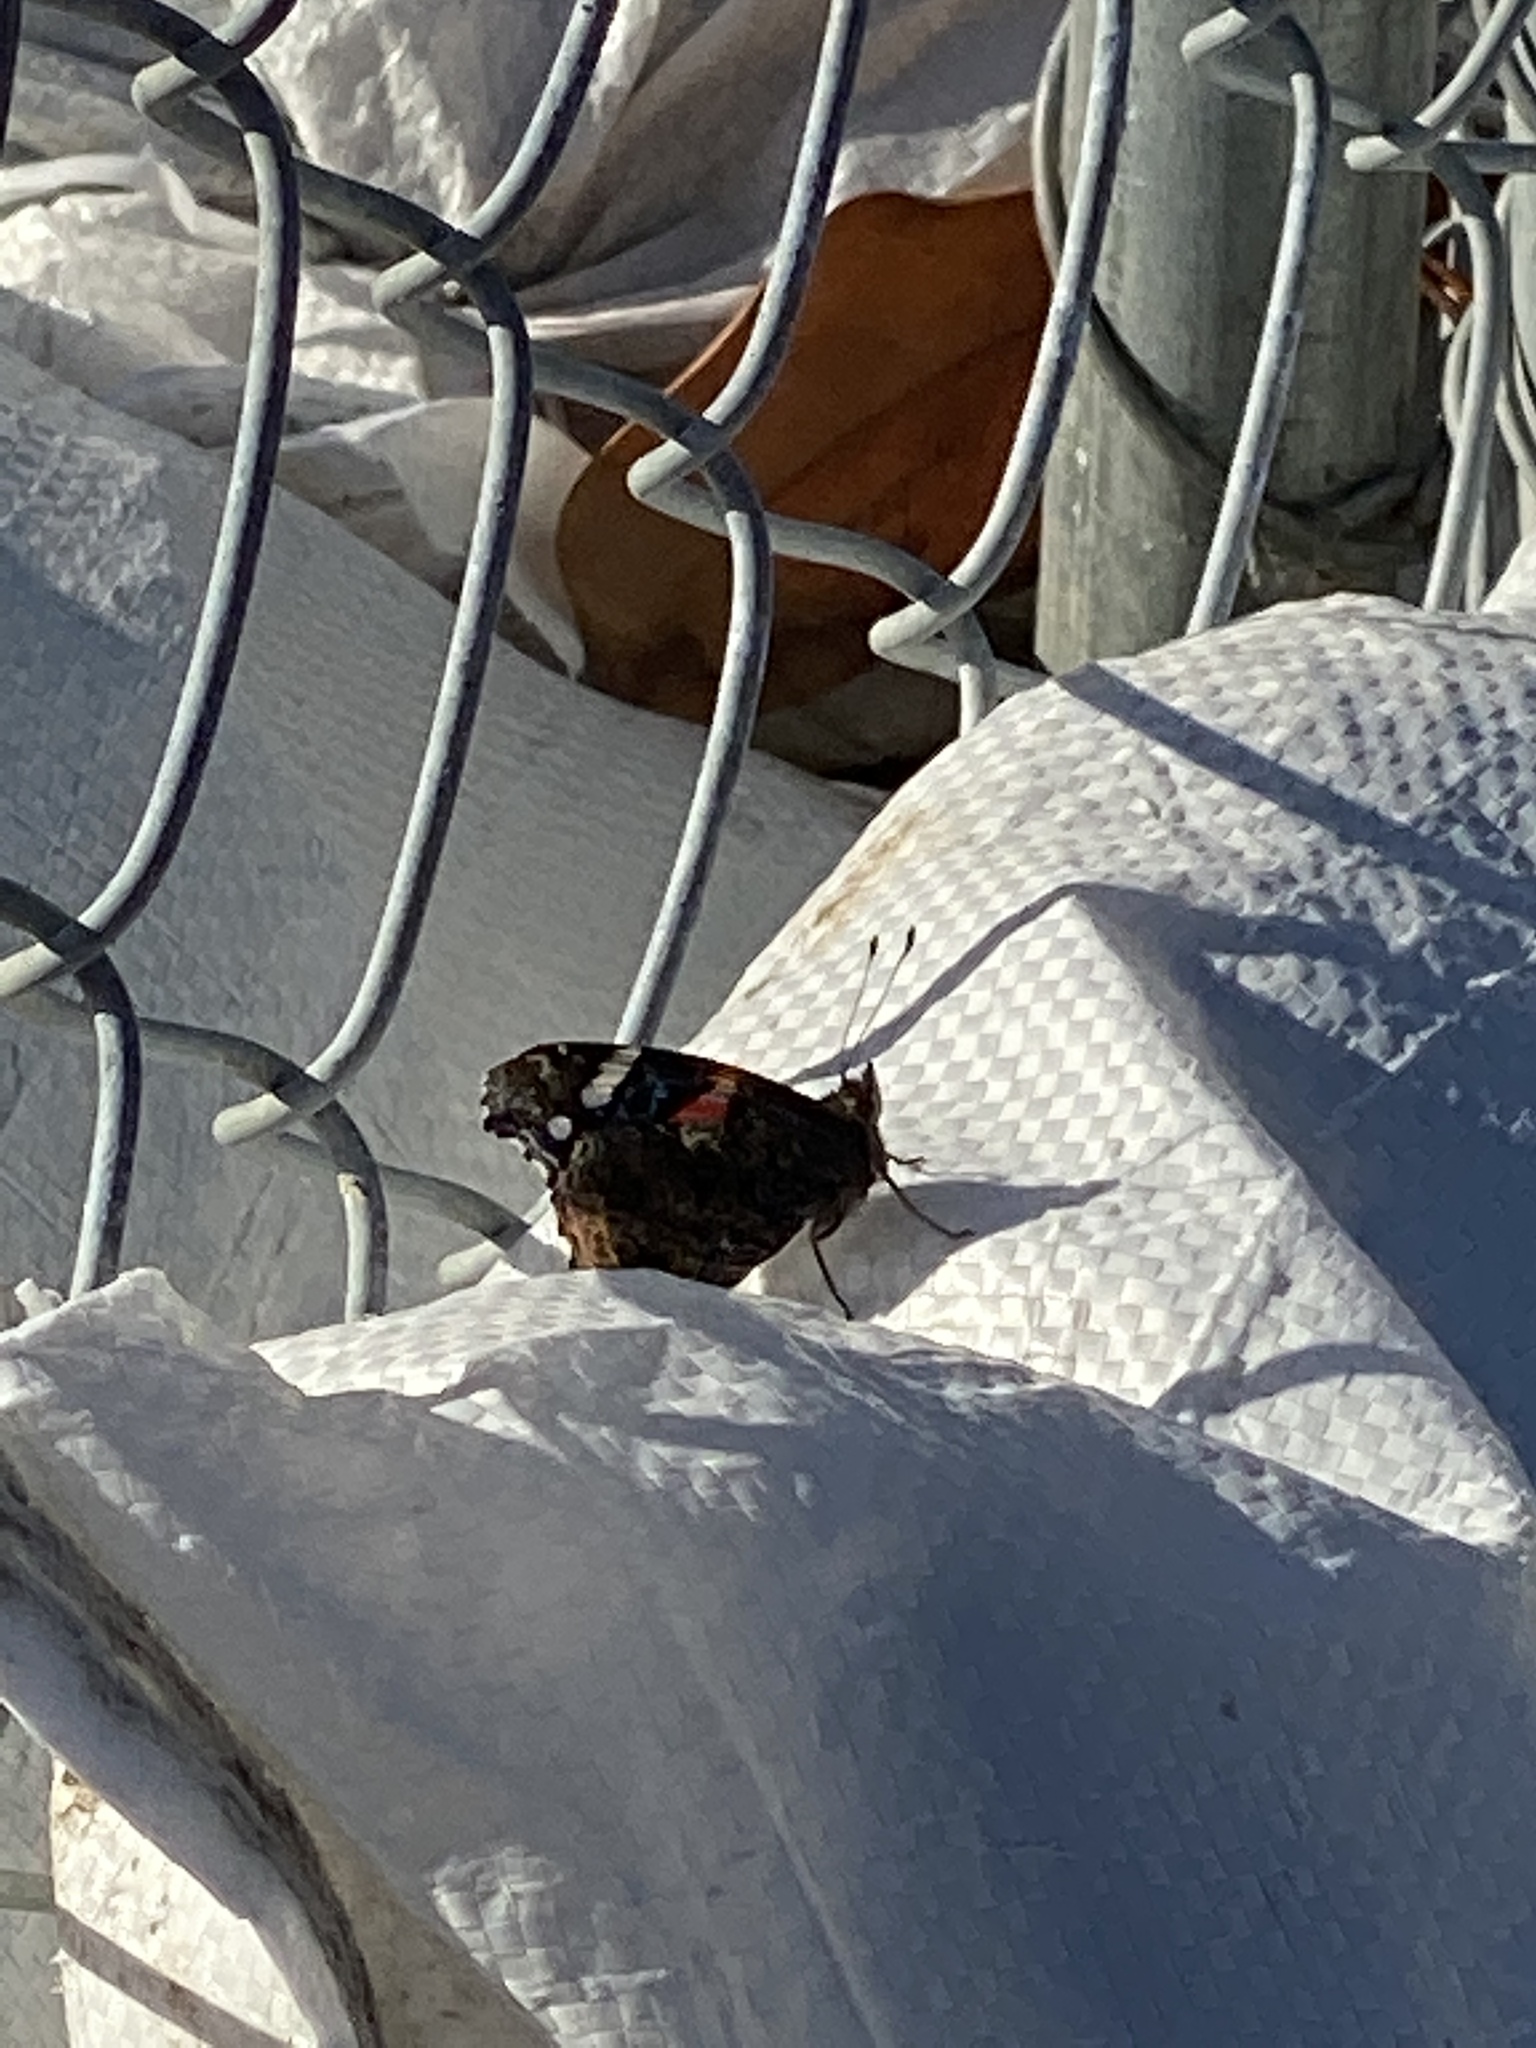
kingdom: Animalia
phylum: Arthropoda
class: Insecta
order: Lepidoptera
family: Nymphalidae
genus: Vanessa
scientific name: Vanessa atalanta
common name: Red admiral
